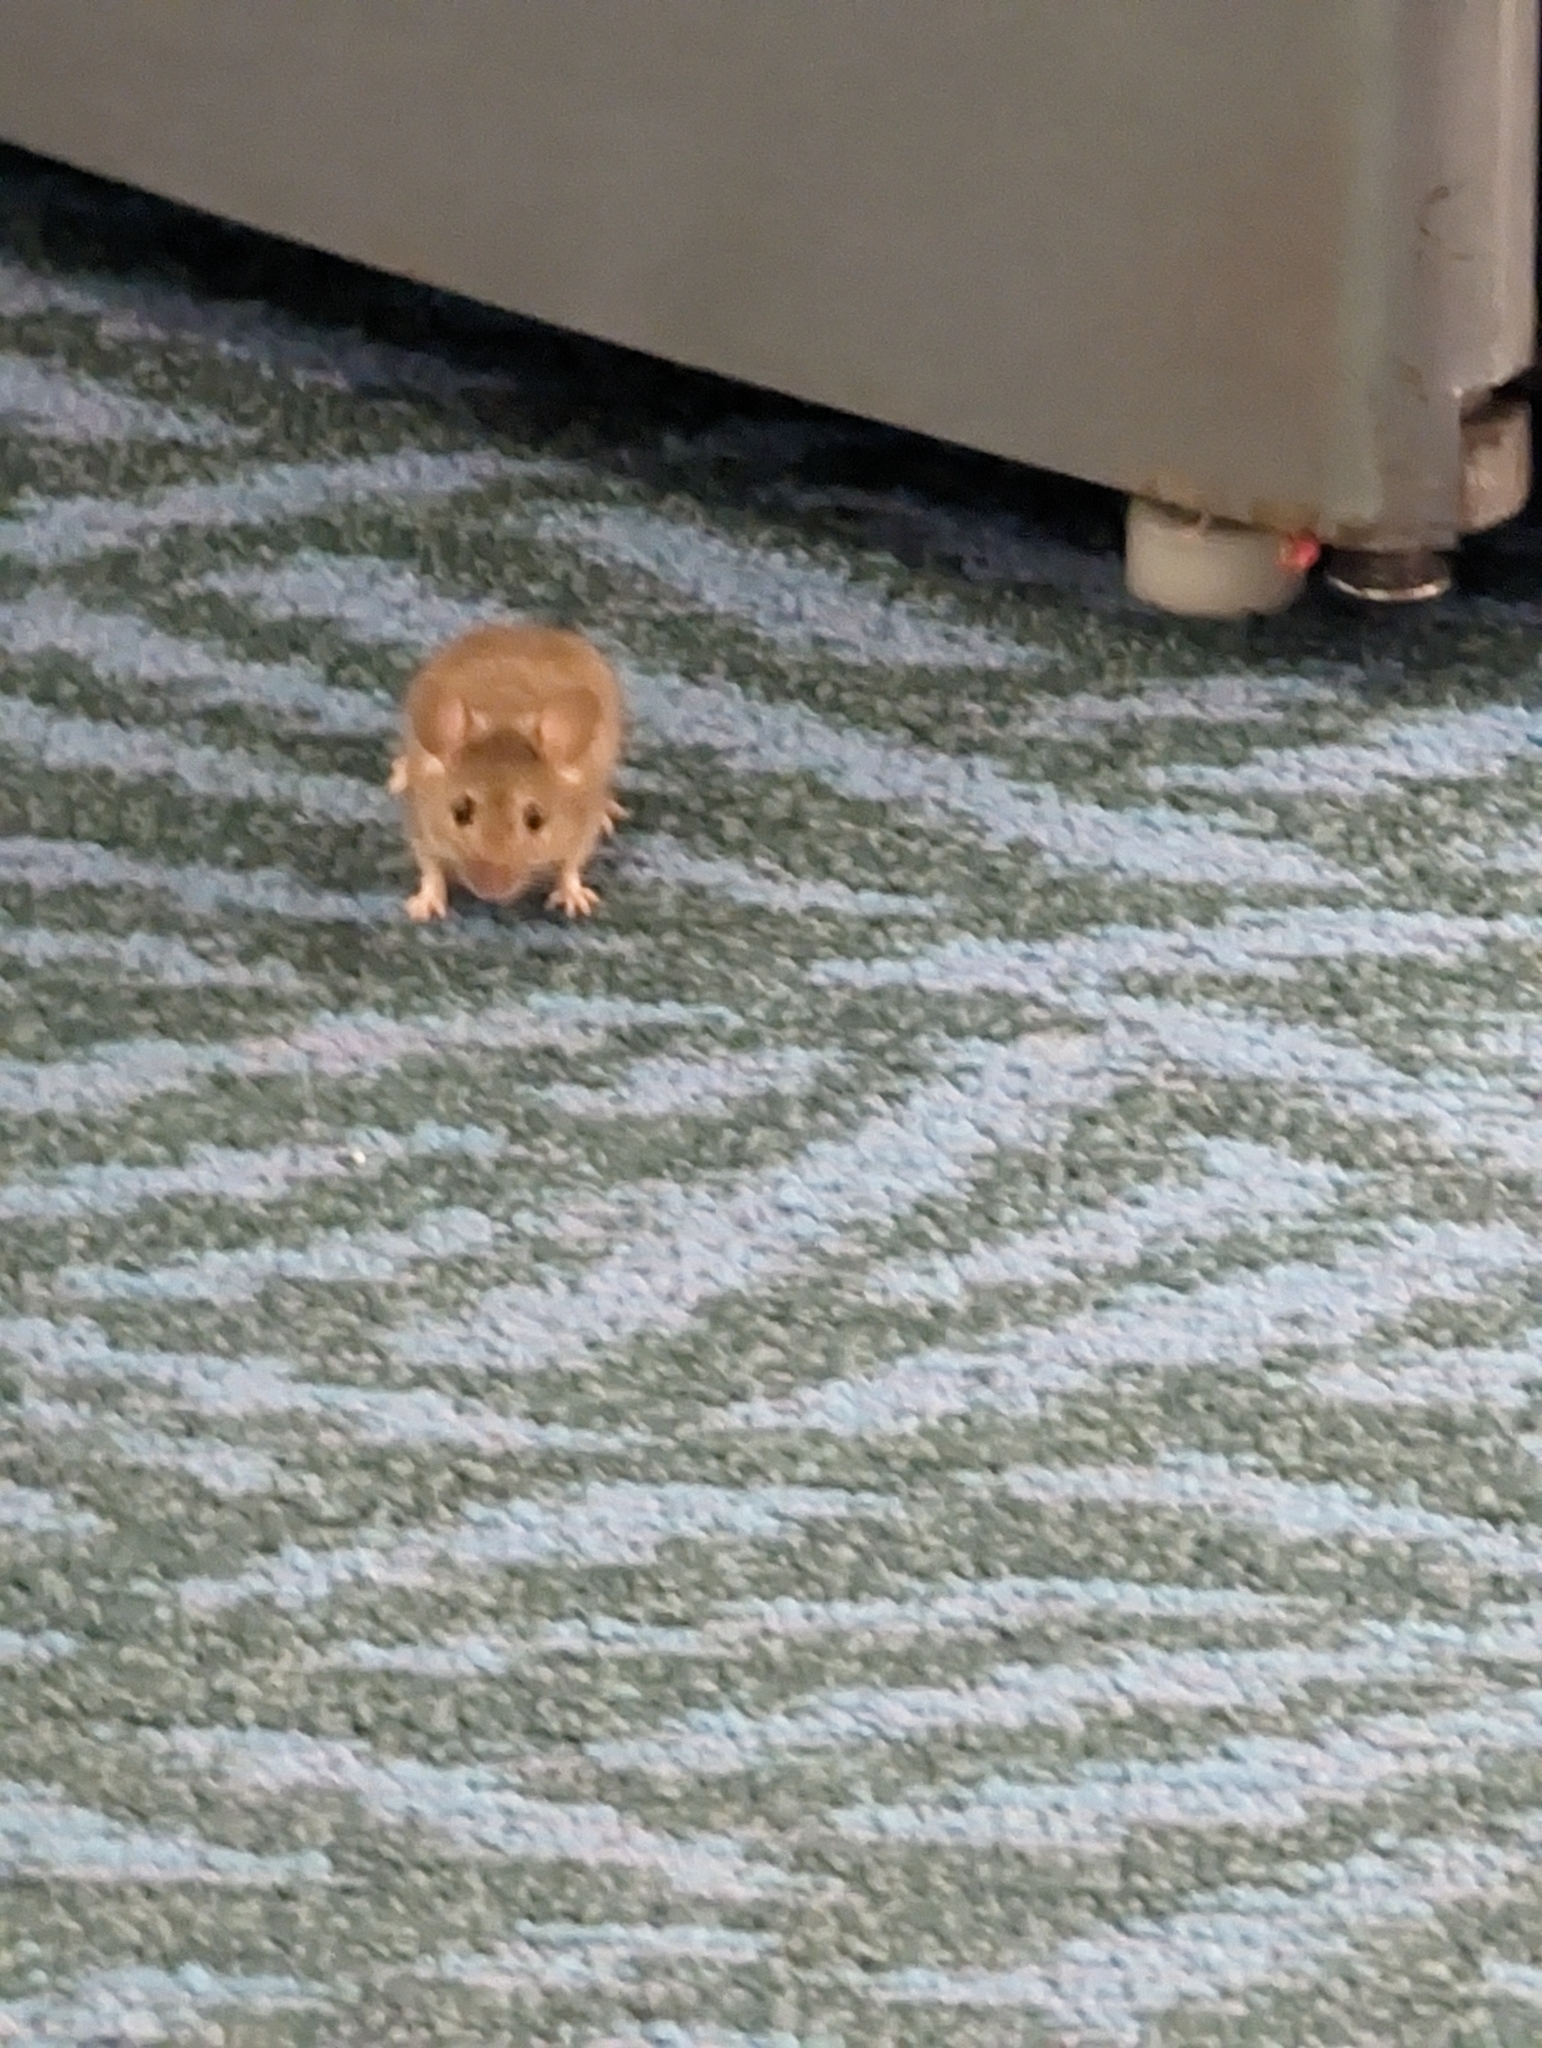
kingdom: Animalia
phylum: Chordata
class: Mammalia
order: Rodentia
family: Muridae
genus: Mus
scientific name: Mus musculus
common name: House mouse
